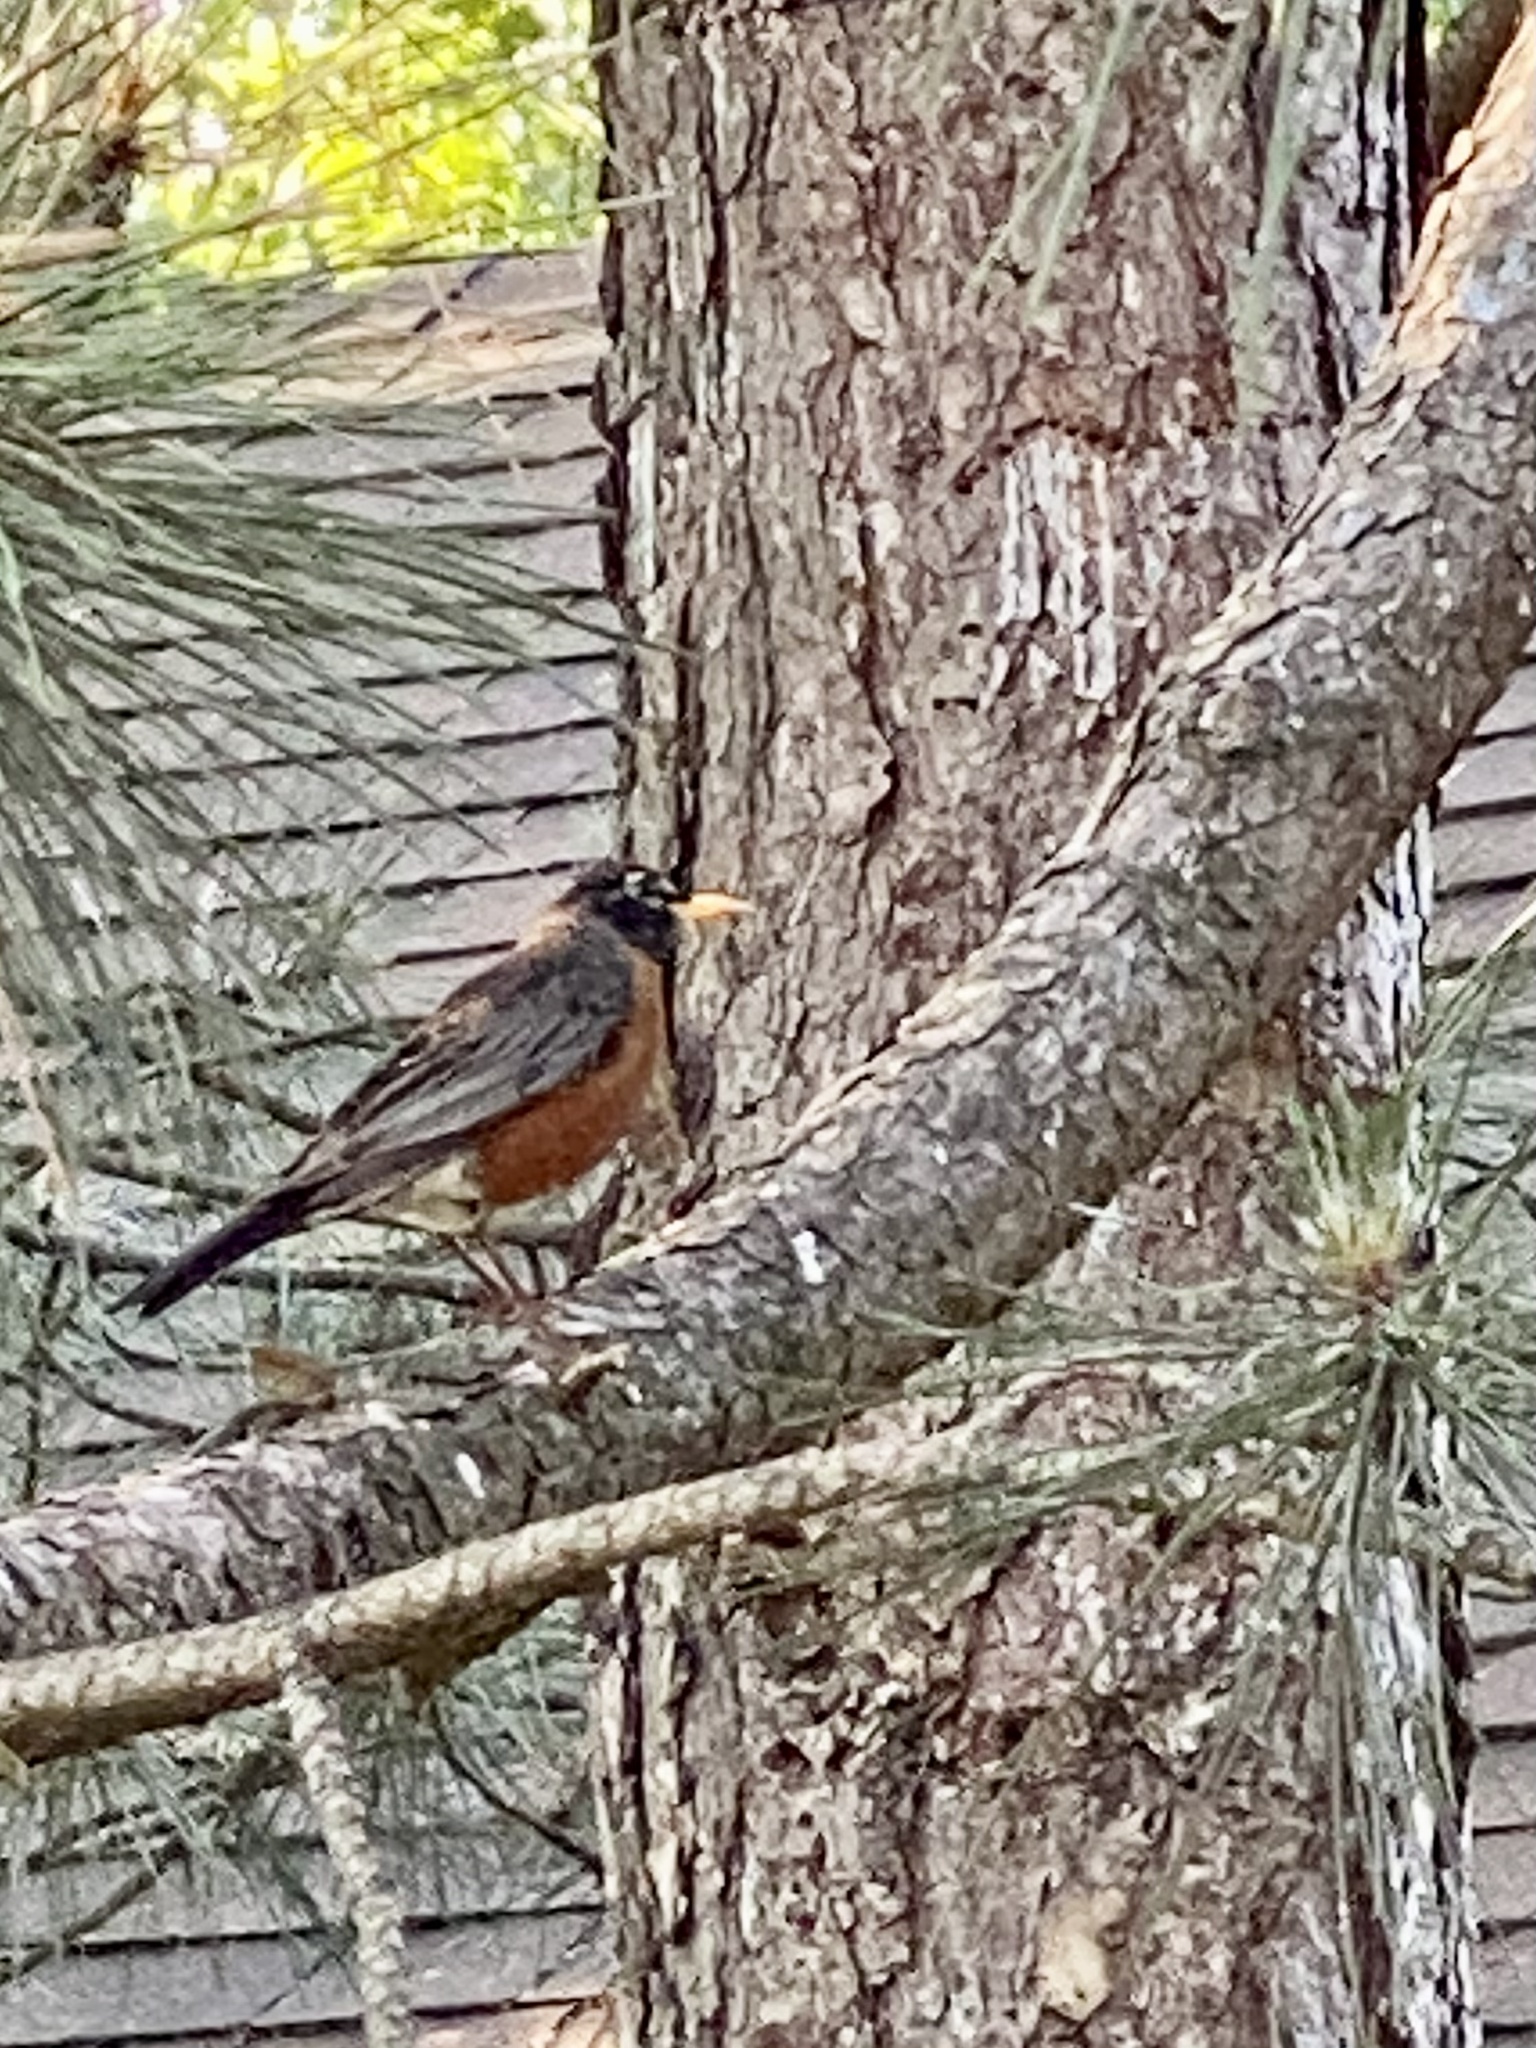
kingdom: Animalia
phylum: Chordata
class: Aves
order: Passeriformes
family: Turdidae
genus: Turdus
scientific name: Turdus migratorius
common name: American robin
